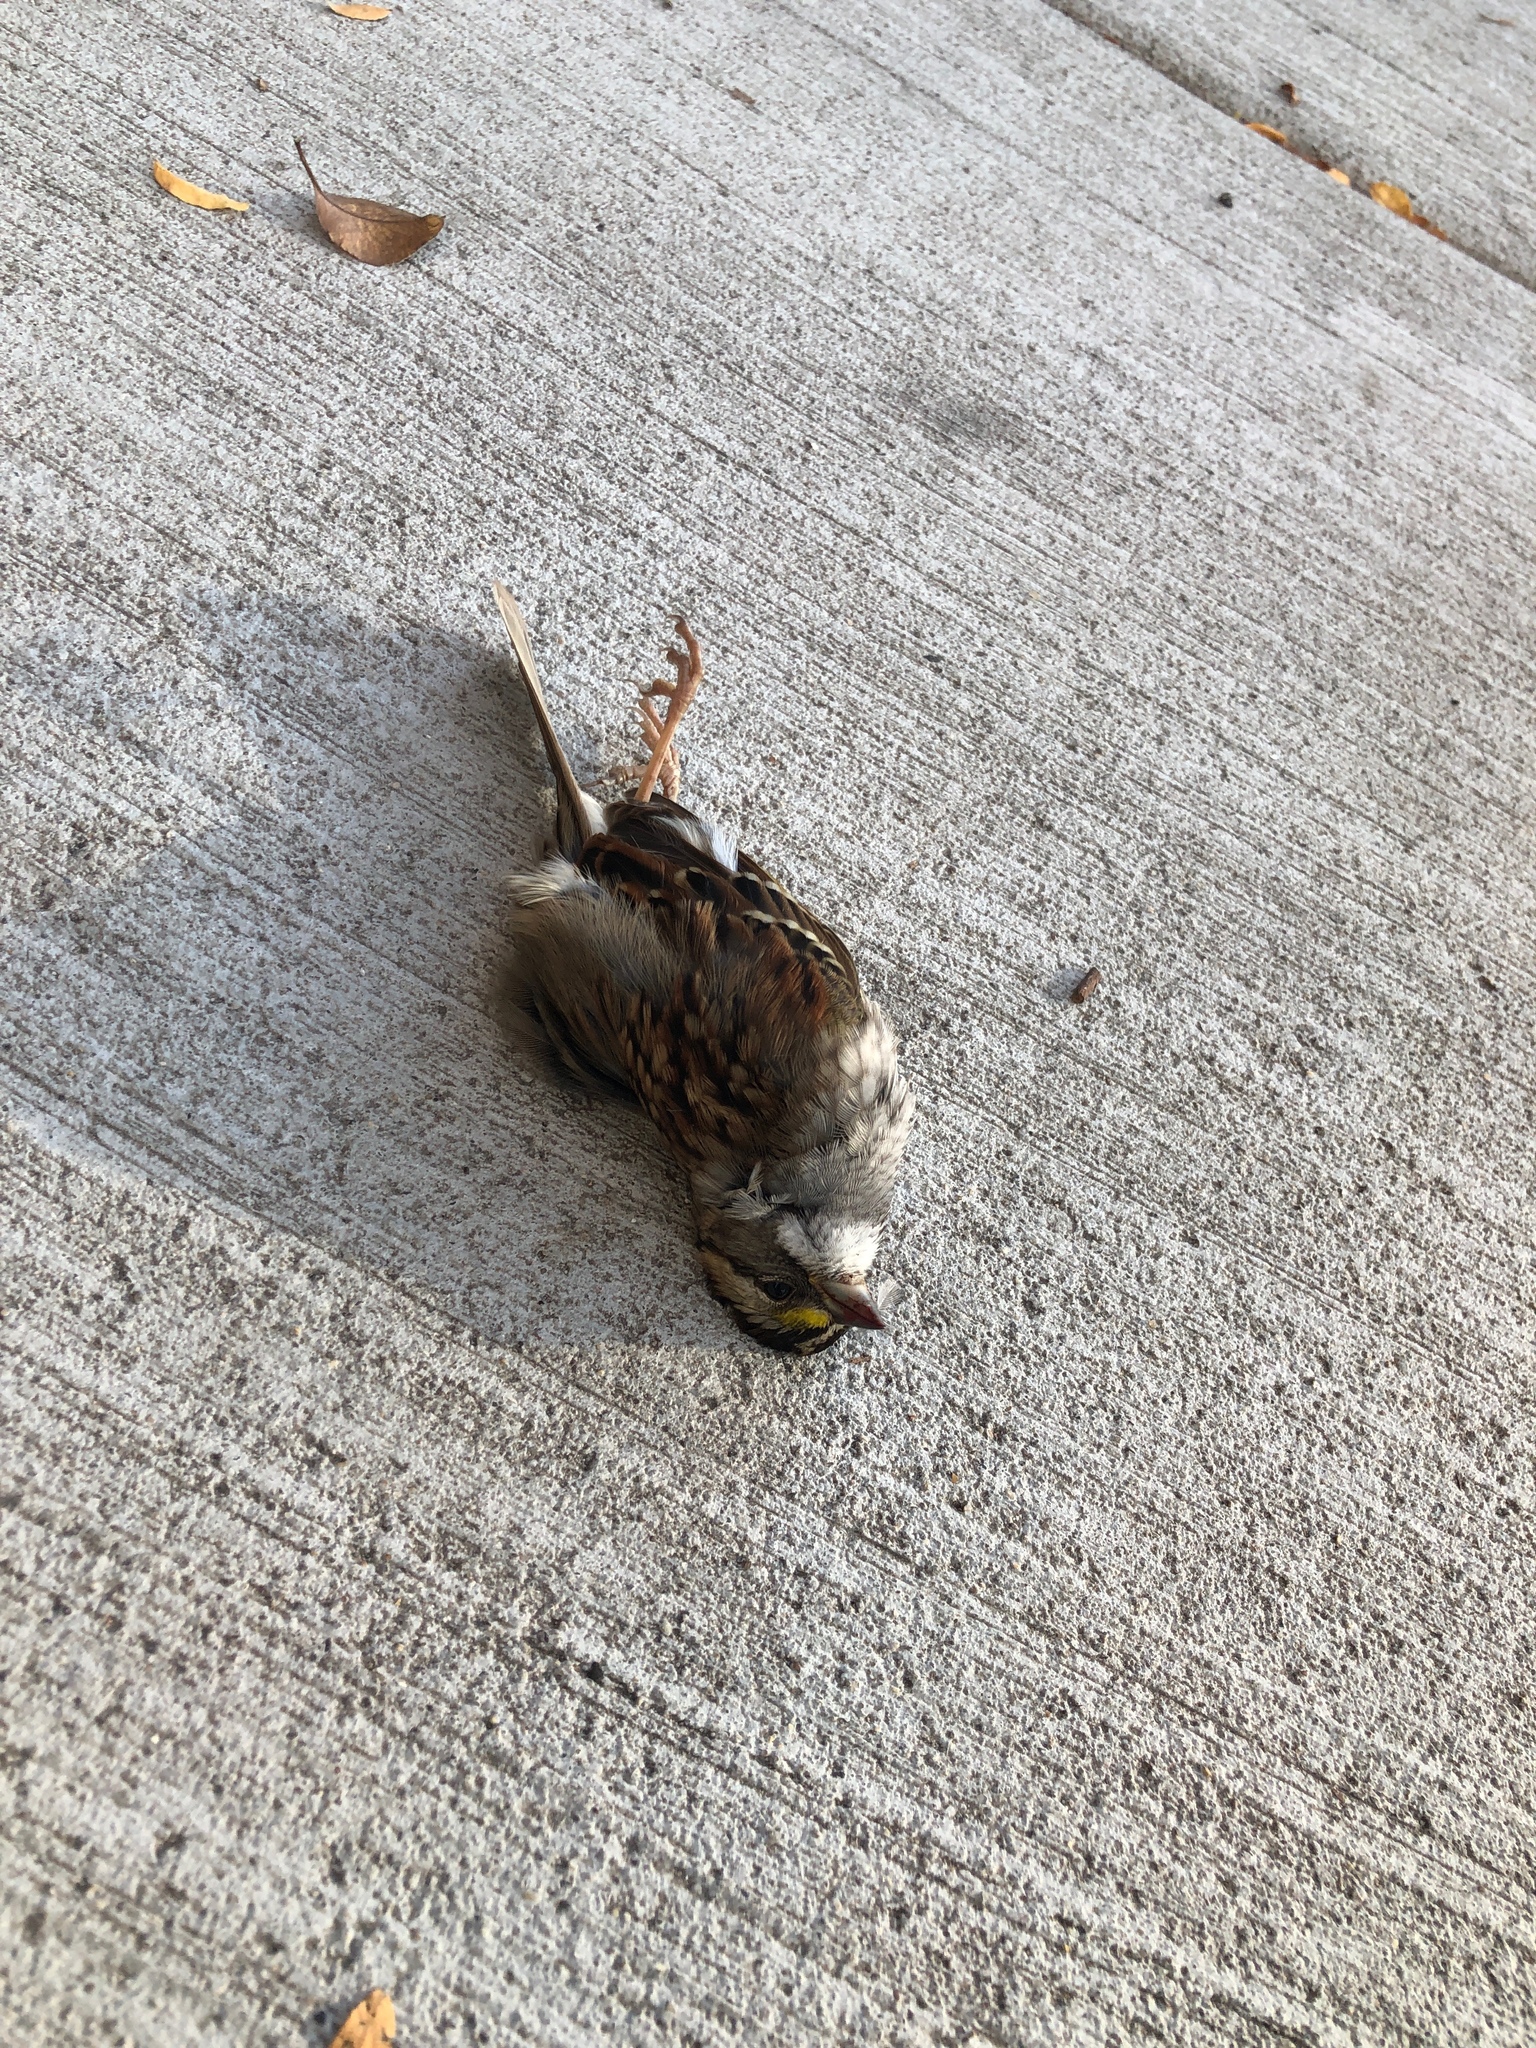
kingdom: Animalia
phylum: Chordata
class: Aves
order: Passeriformes
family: Passerellidae
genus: Zonotrichia
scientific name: Zonotrichia albicollis
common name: White-throated sparrow
